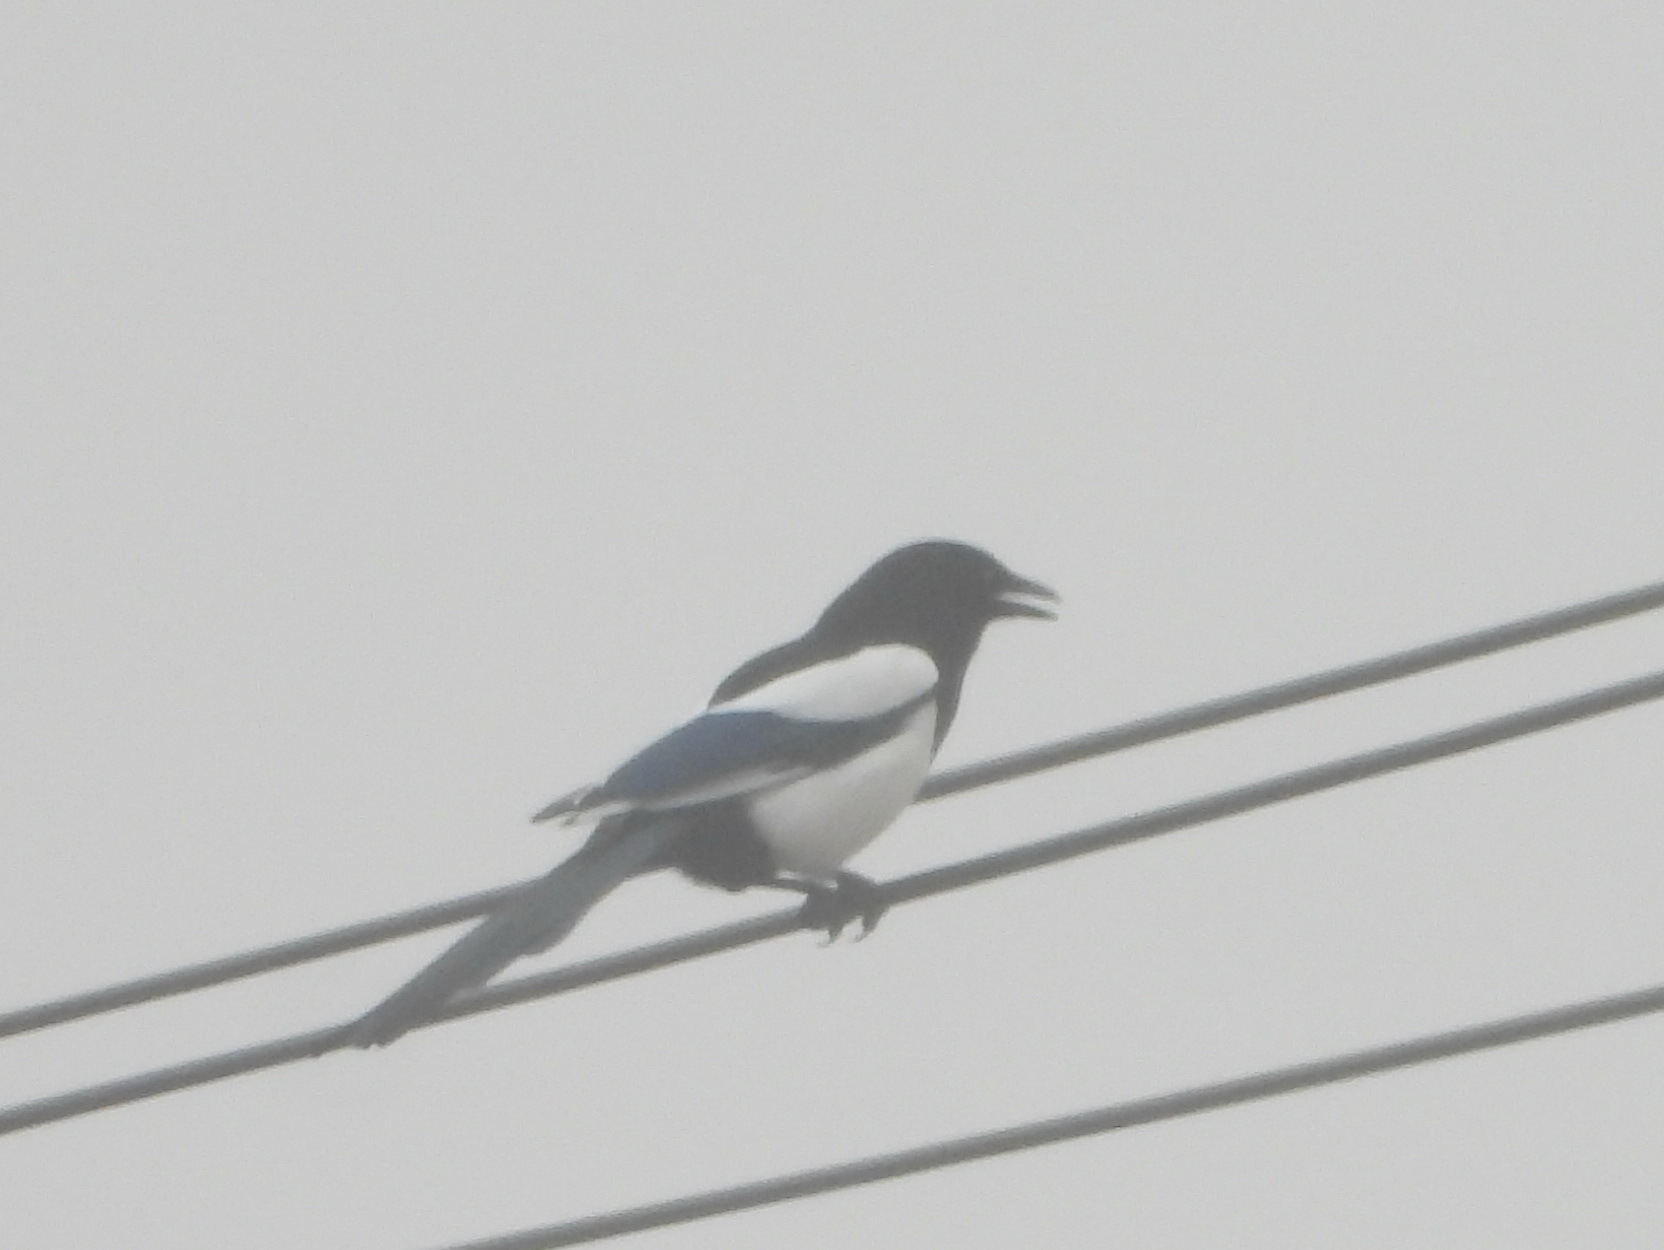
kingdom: Animalia
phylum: Chordata
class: Aves
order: Passeriformes
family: Corvidae
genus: Pica
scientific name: Pica serica
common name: Oriental magpie
